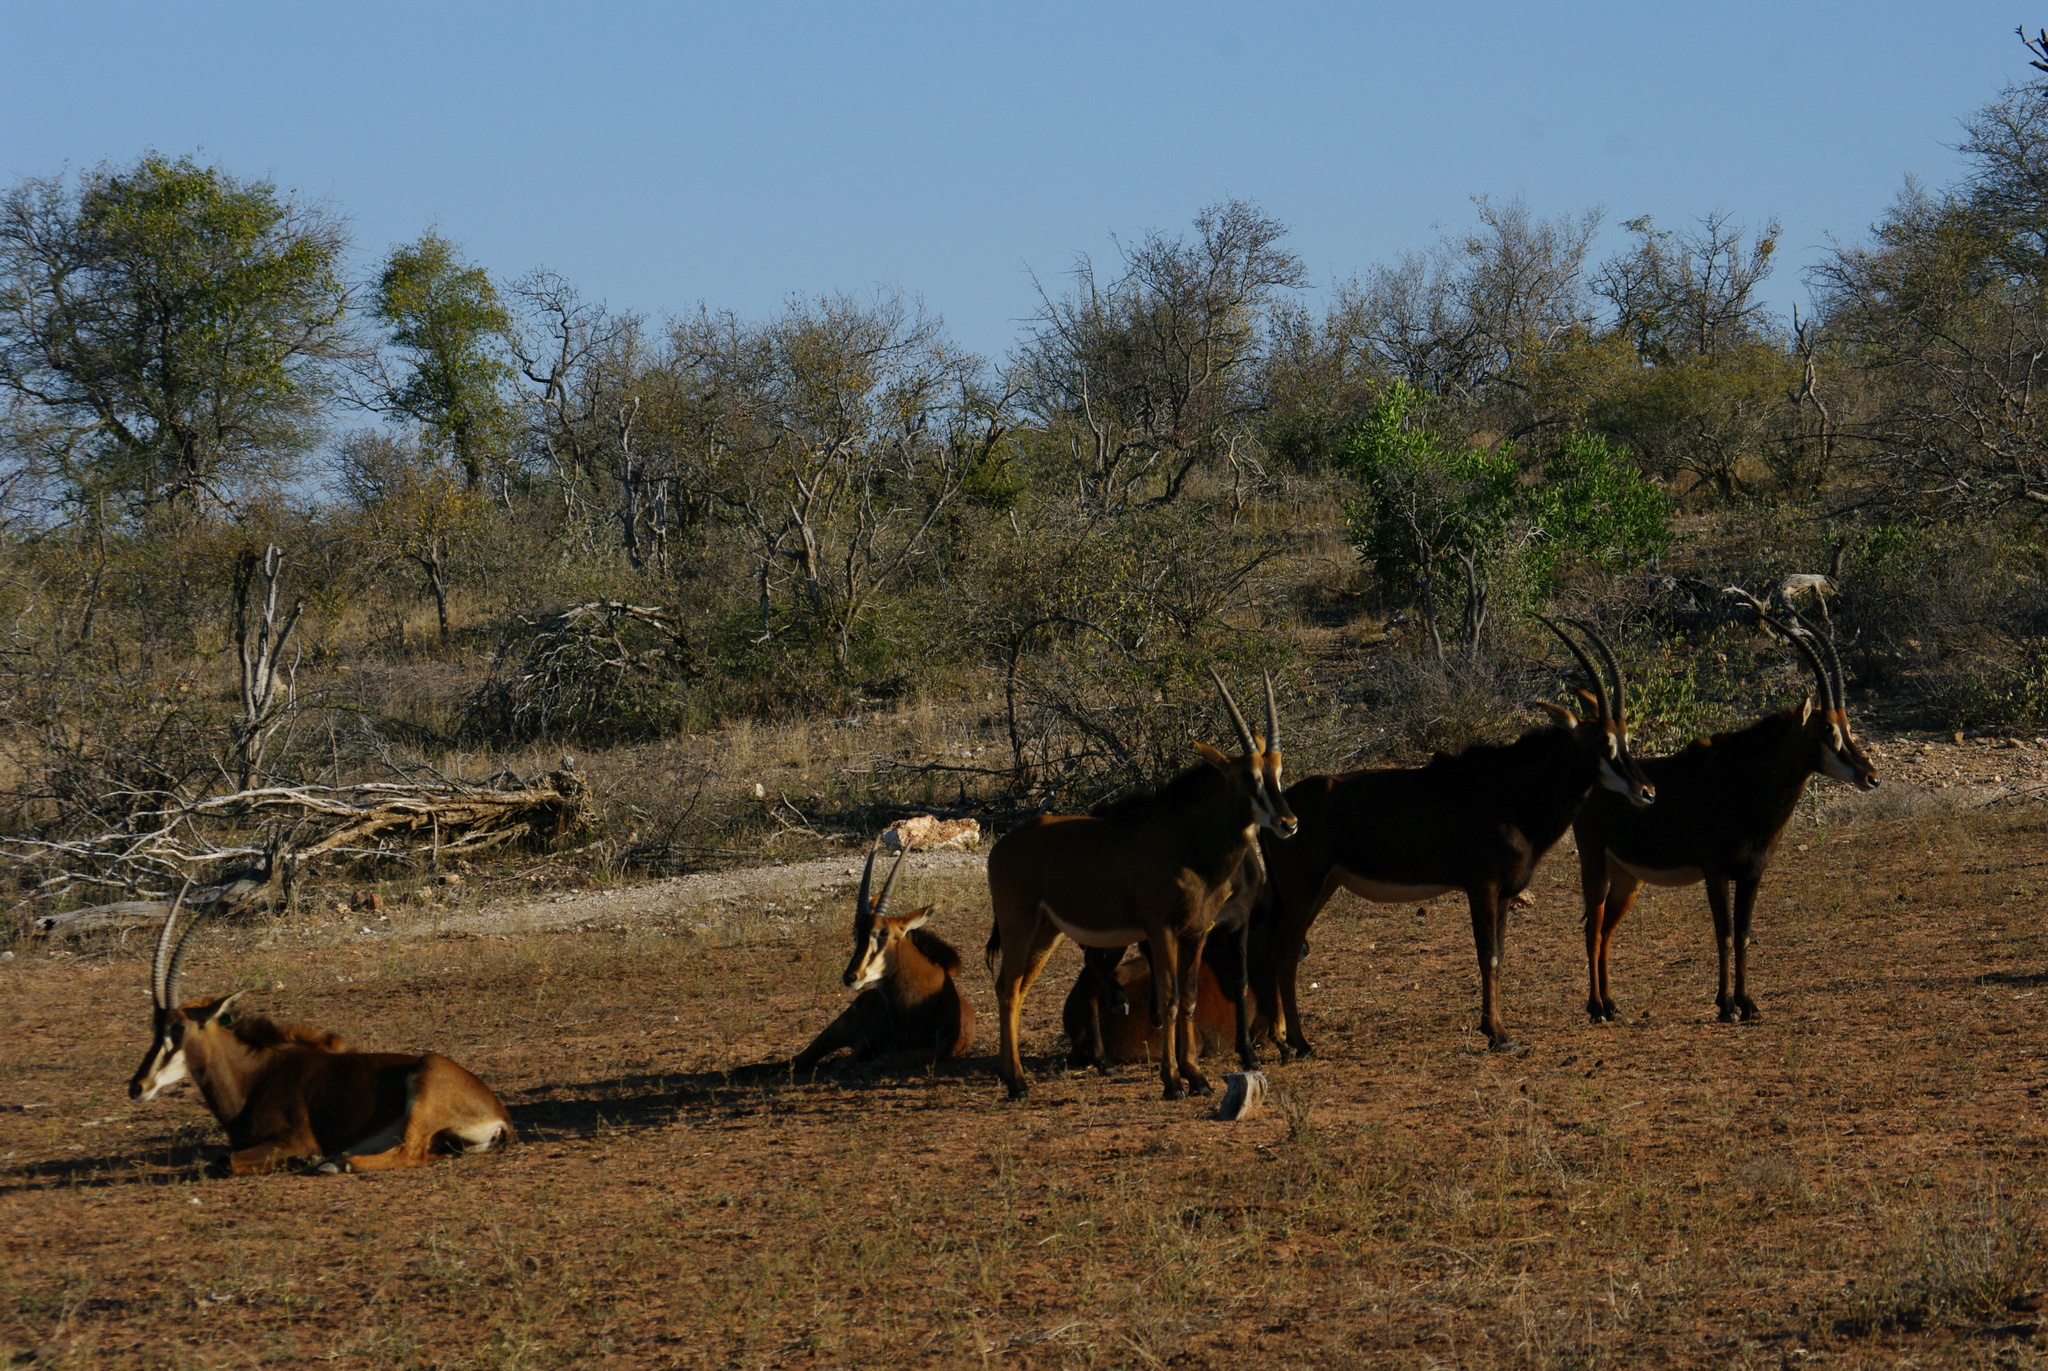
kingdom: Animalia
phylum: Chordata
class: Mammalia
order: Artiodactyla
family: Bovidae
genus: Hippotragus
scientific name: Hippotragus niger
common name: Sable antelope
